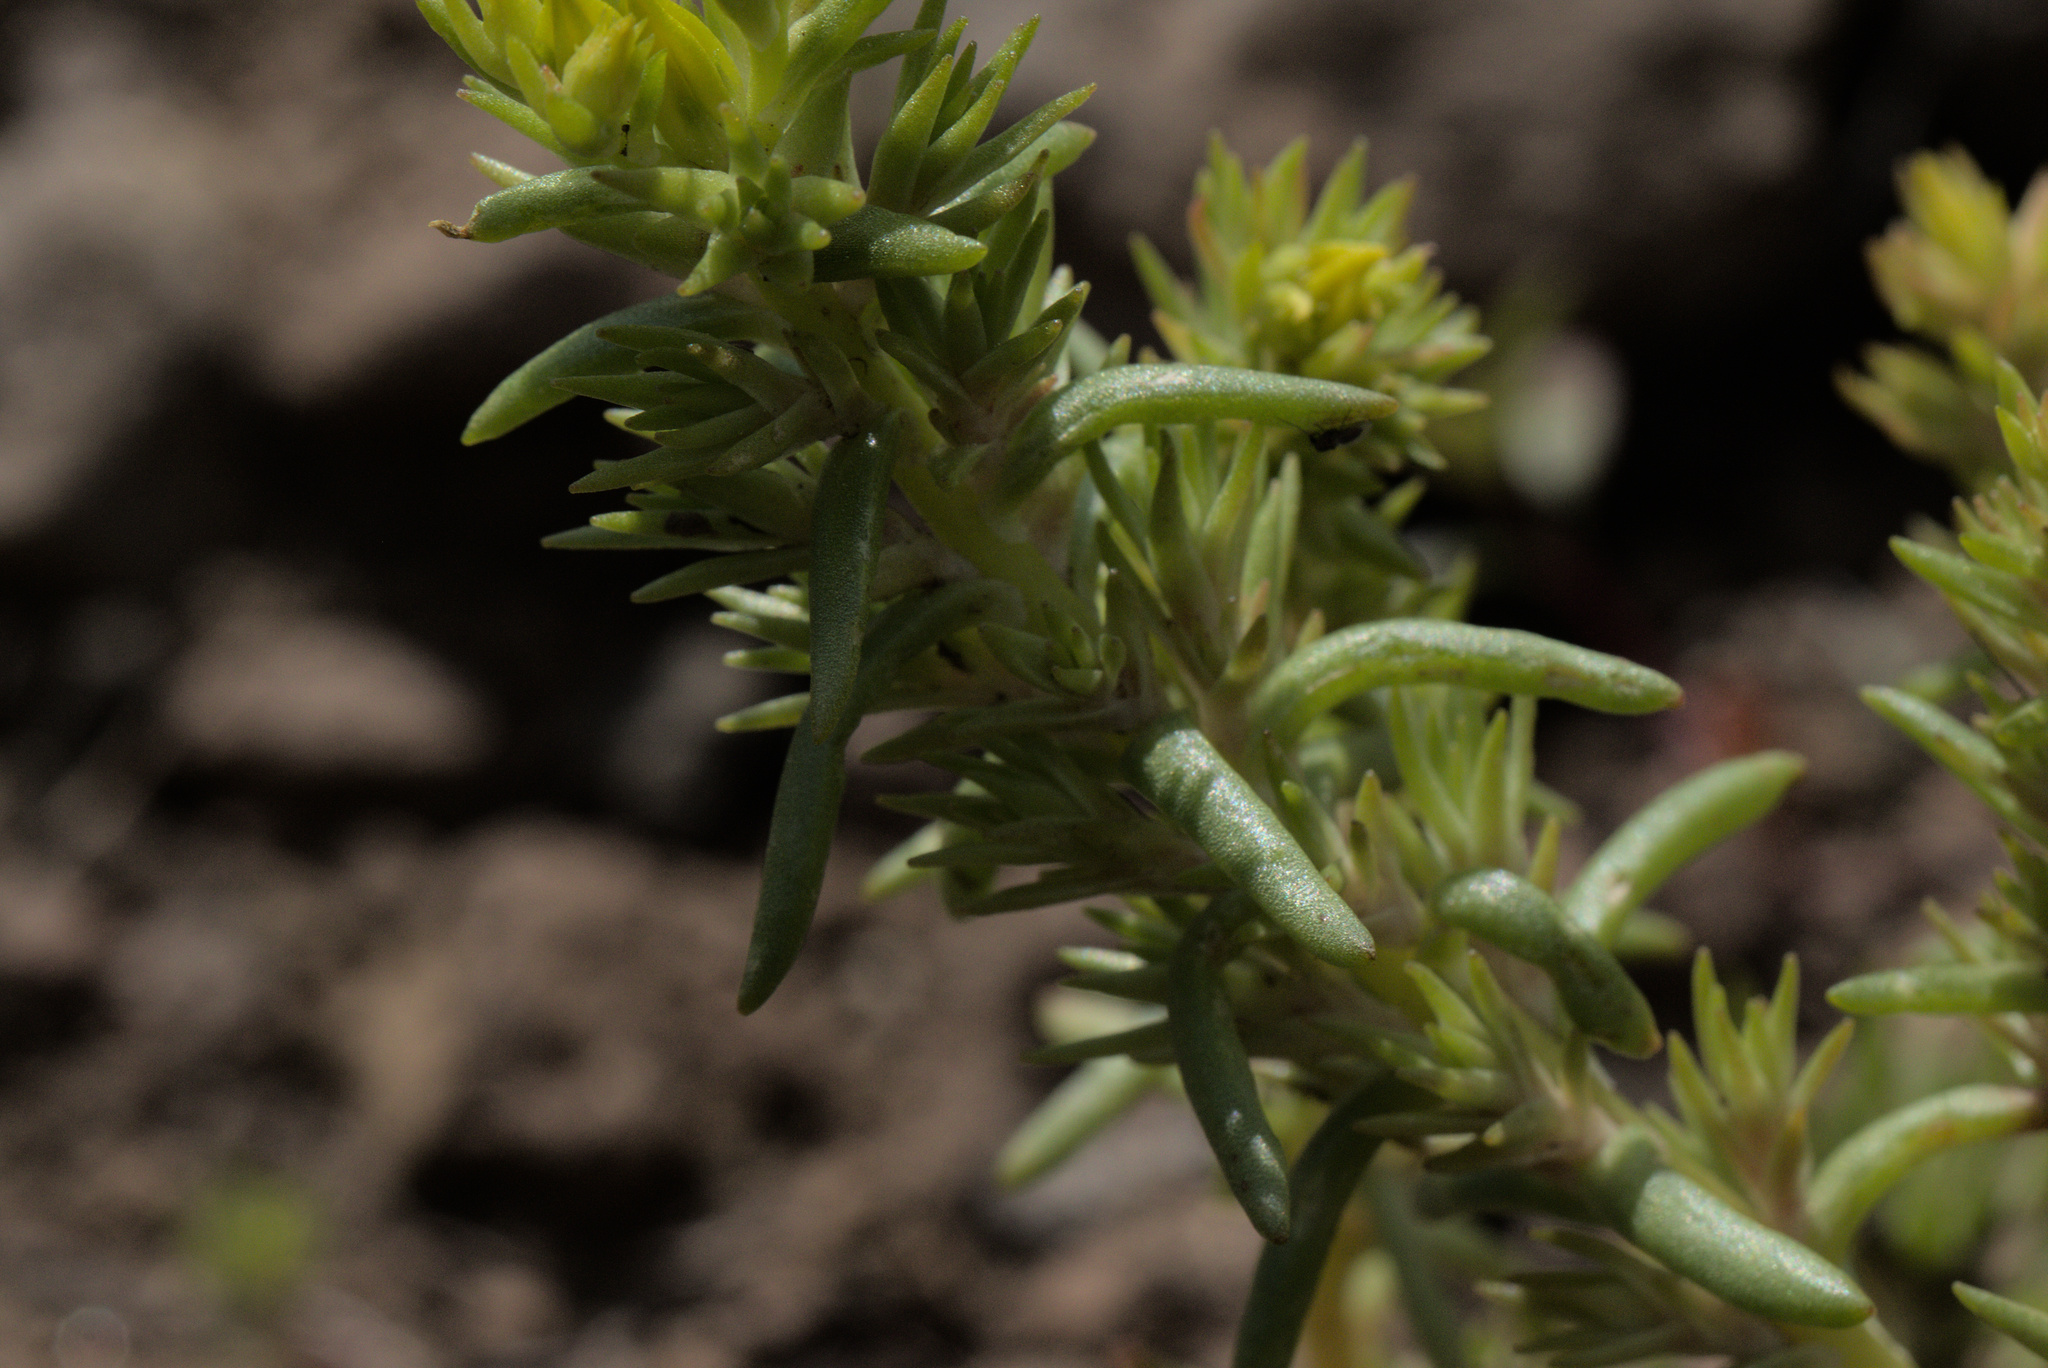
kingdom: Plantae
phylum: Tracheophyta
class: Magnoliopsida
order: Saxifragales
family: Crassulaceae
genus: Sedum
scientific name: Sedum stenopetalum
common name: Narrow-petaled stonecrop
